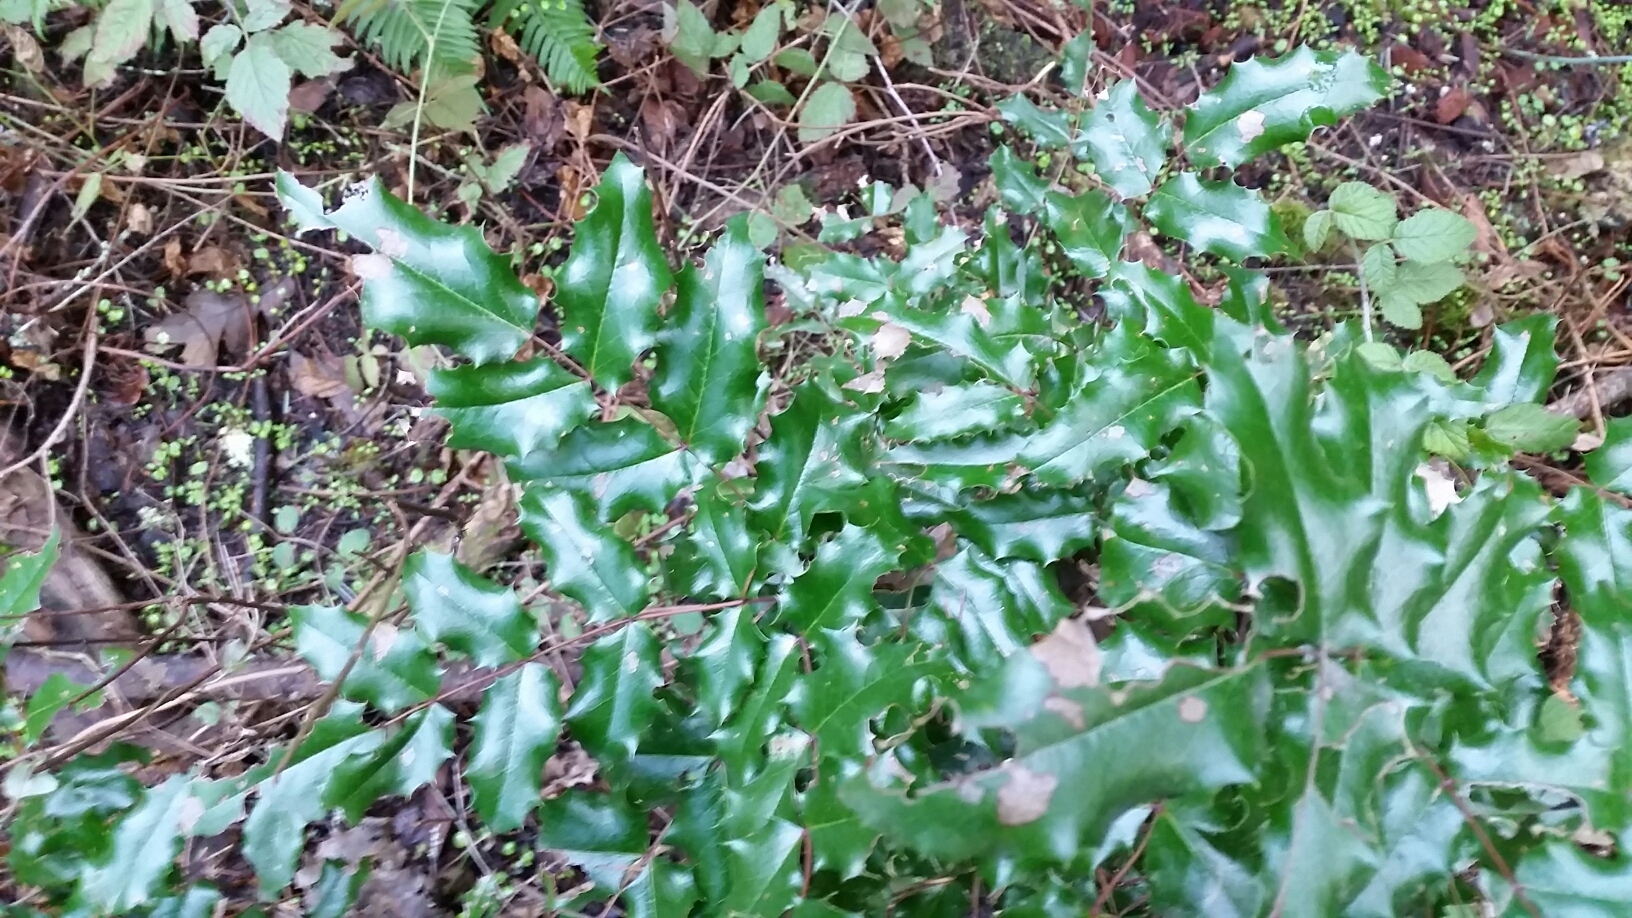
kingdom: Plantae
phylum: Tracheophyta
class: Magnoliopsida
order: Ranunculales
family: Berberidaceae
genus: Mahonia
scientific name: Mahonia aquifolium
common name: Oregon-grape
